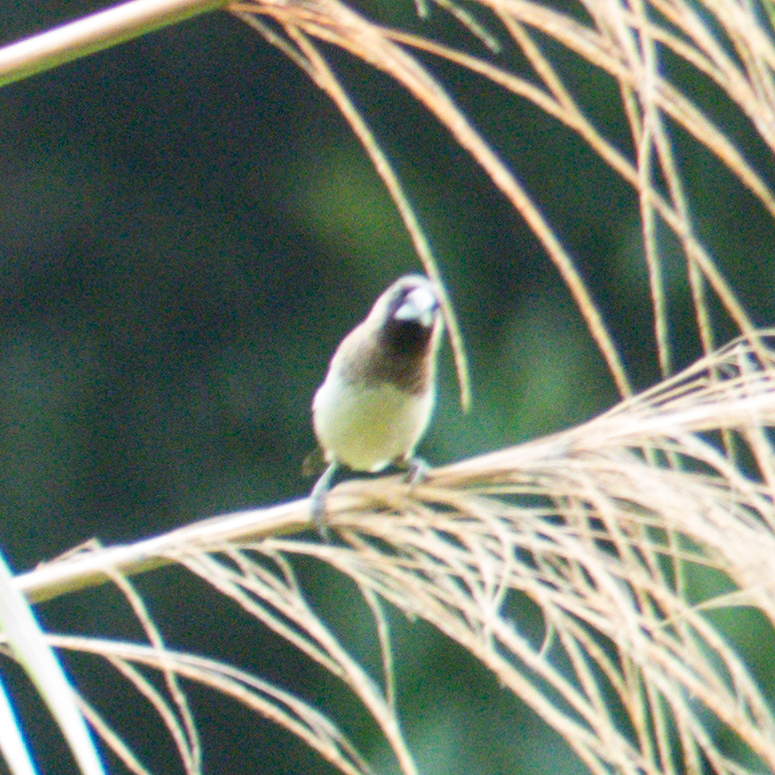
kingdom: Animalia
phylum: Chordata
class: Aves
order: Passeriformes
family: Estrildidae
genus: Lonchura
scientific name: Lonchura striata
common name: White-rumped munia
